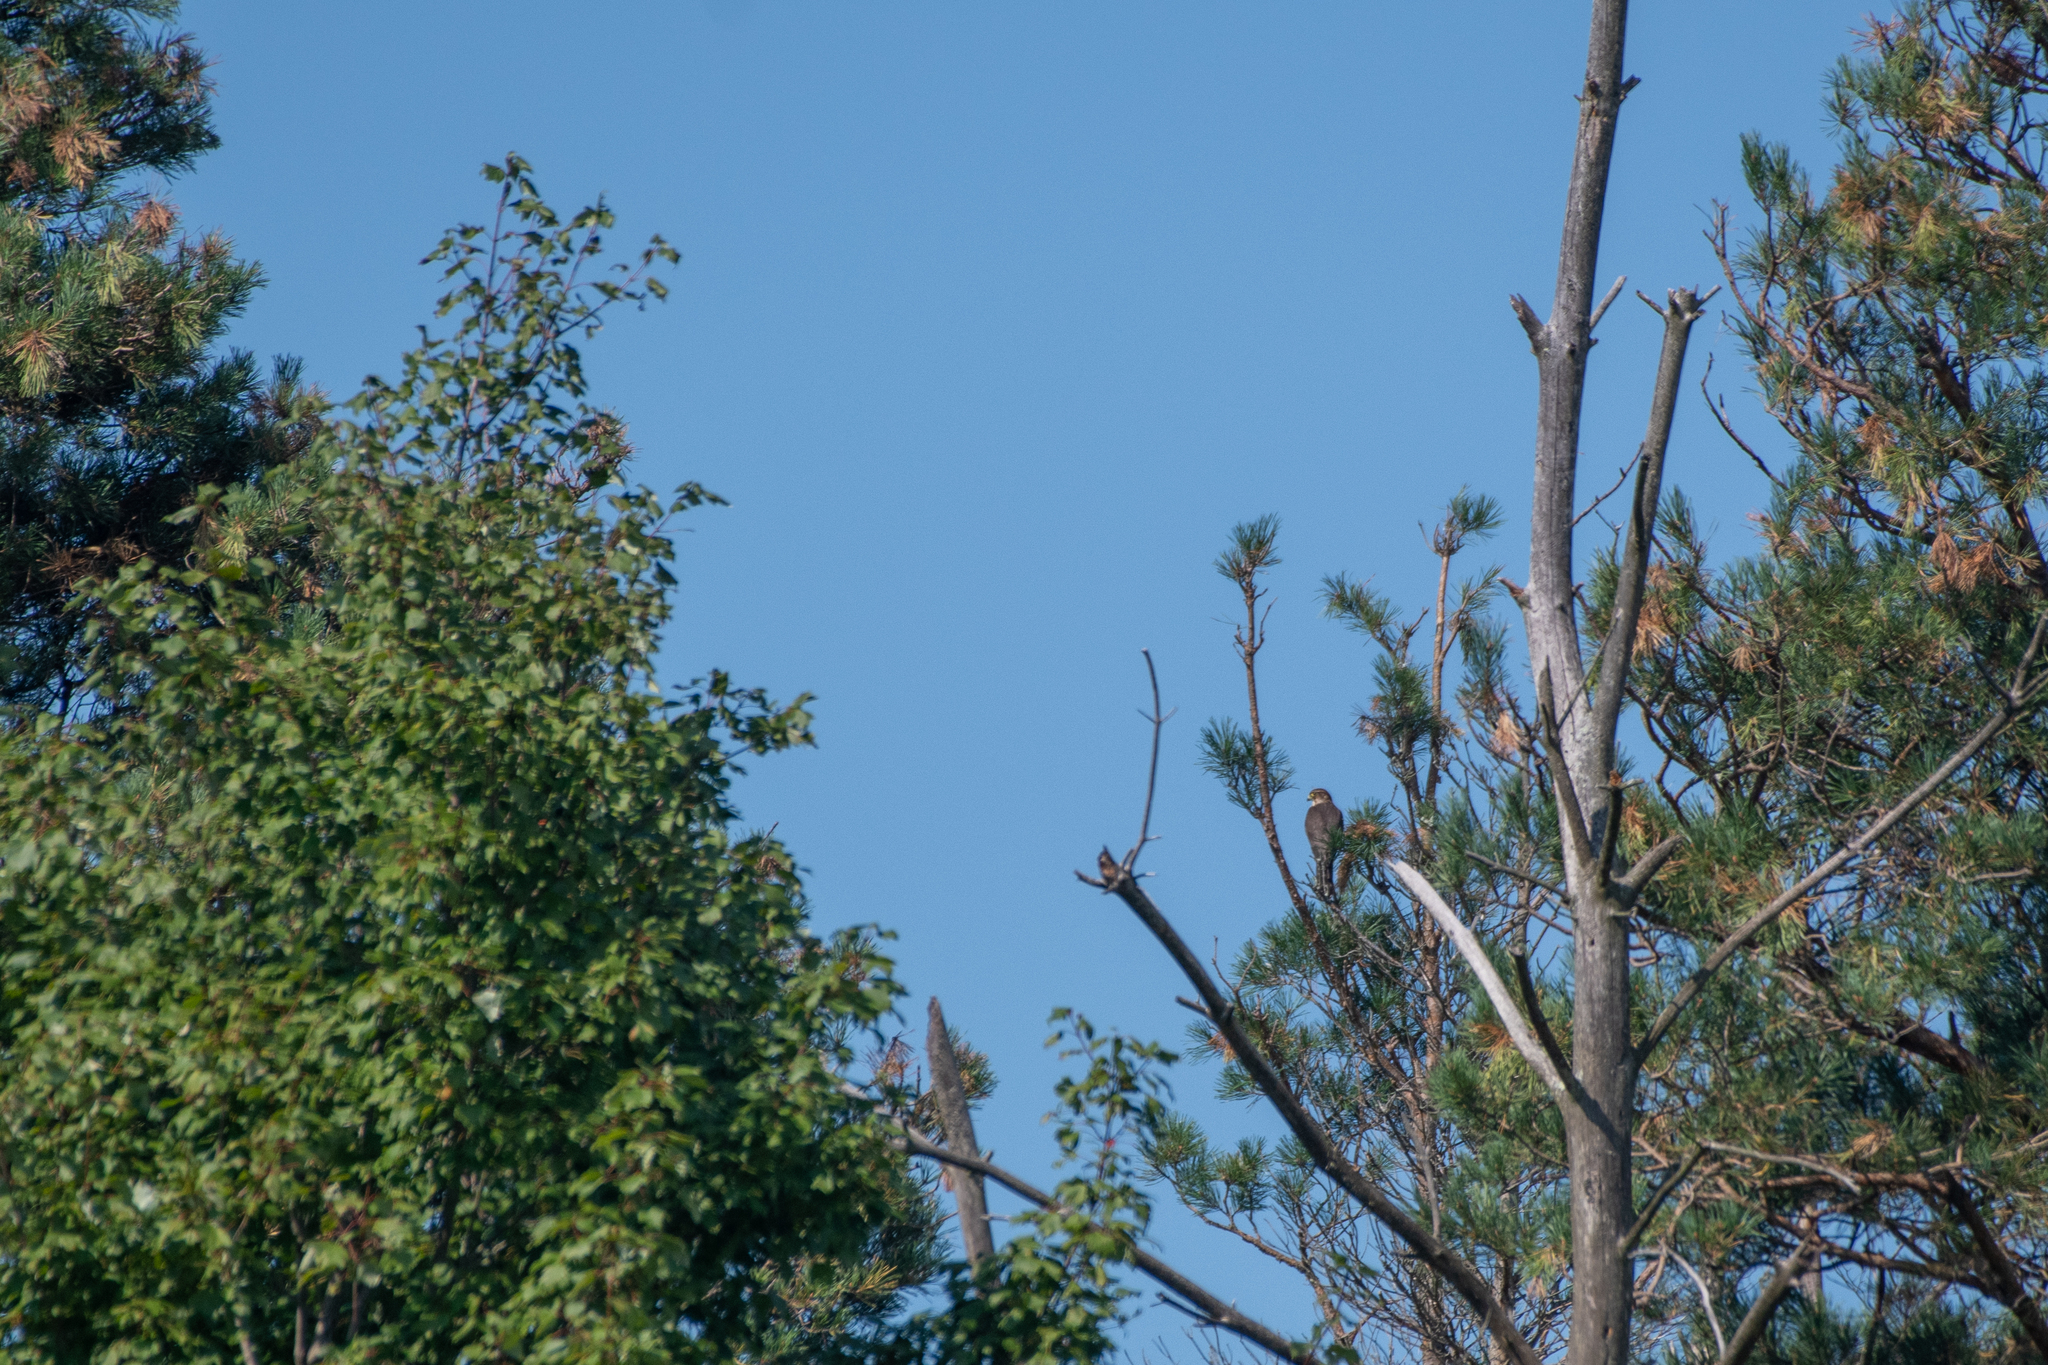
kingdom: Animalia
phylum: Chordata
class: Aves
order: Falconiformes
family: Falconidae
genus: Falco
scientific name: Falco columbarius
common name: Merlin
